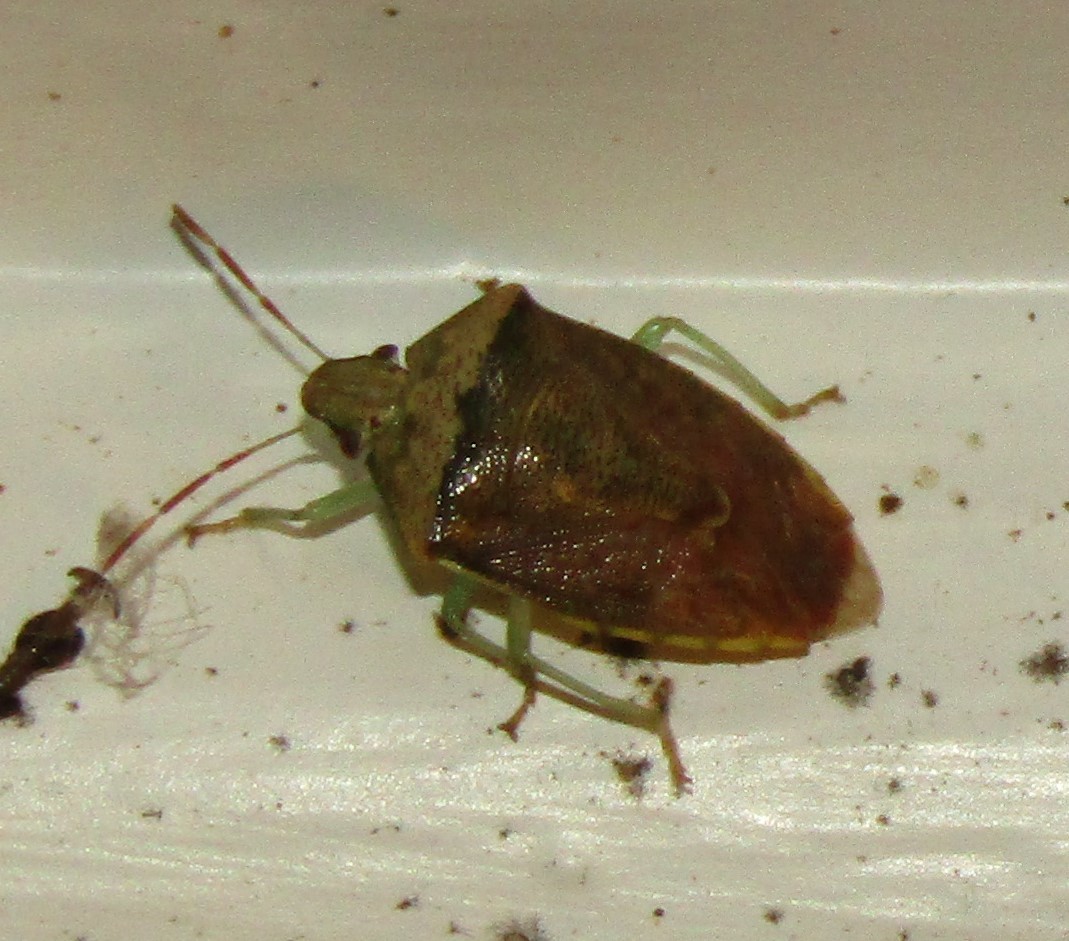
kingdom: Animalia
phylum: Arthropoda
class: Insecta
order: Hemiptera
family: Pentatomidae
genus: Banasa
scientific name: Banasa calva
